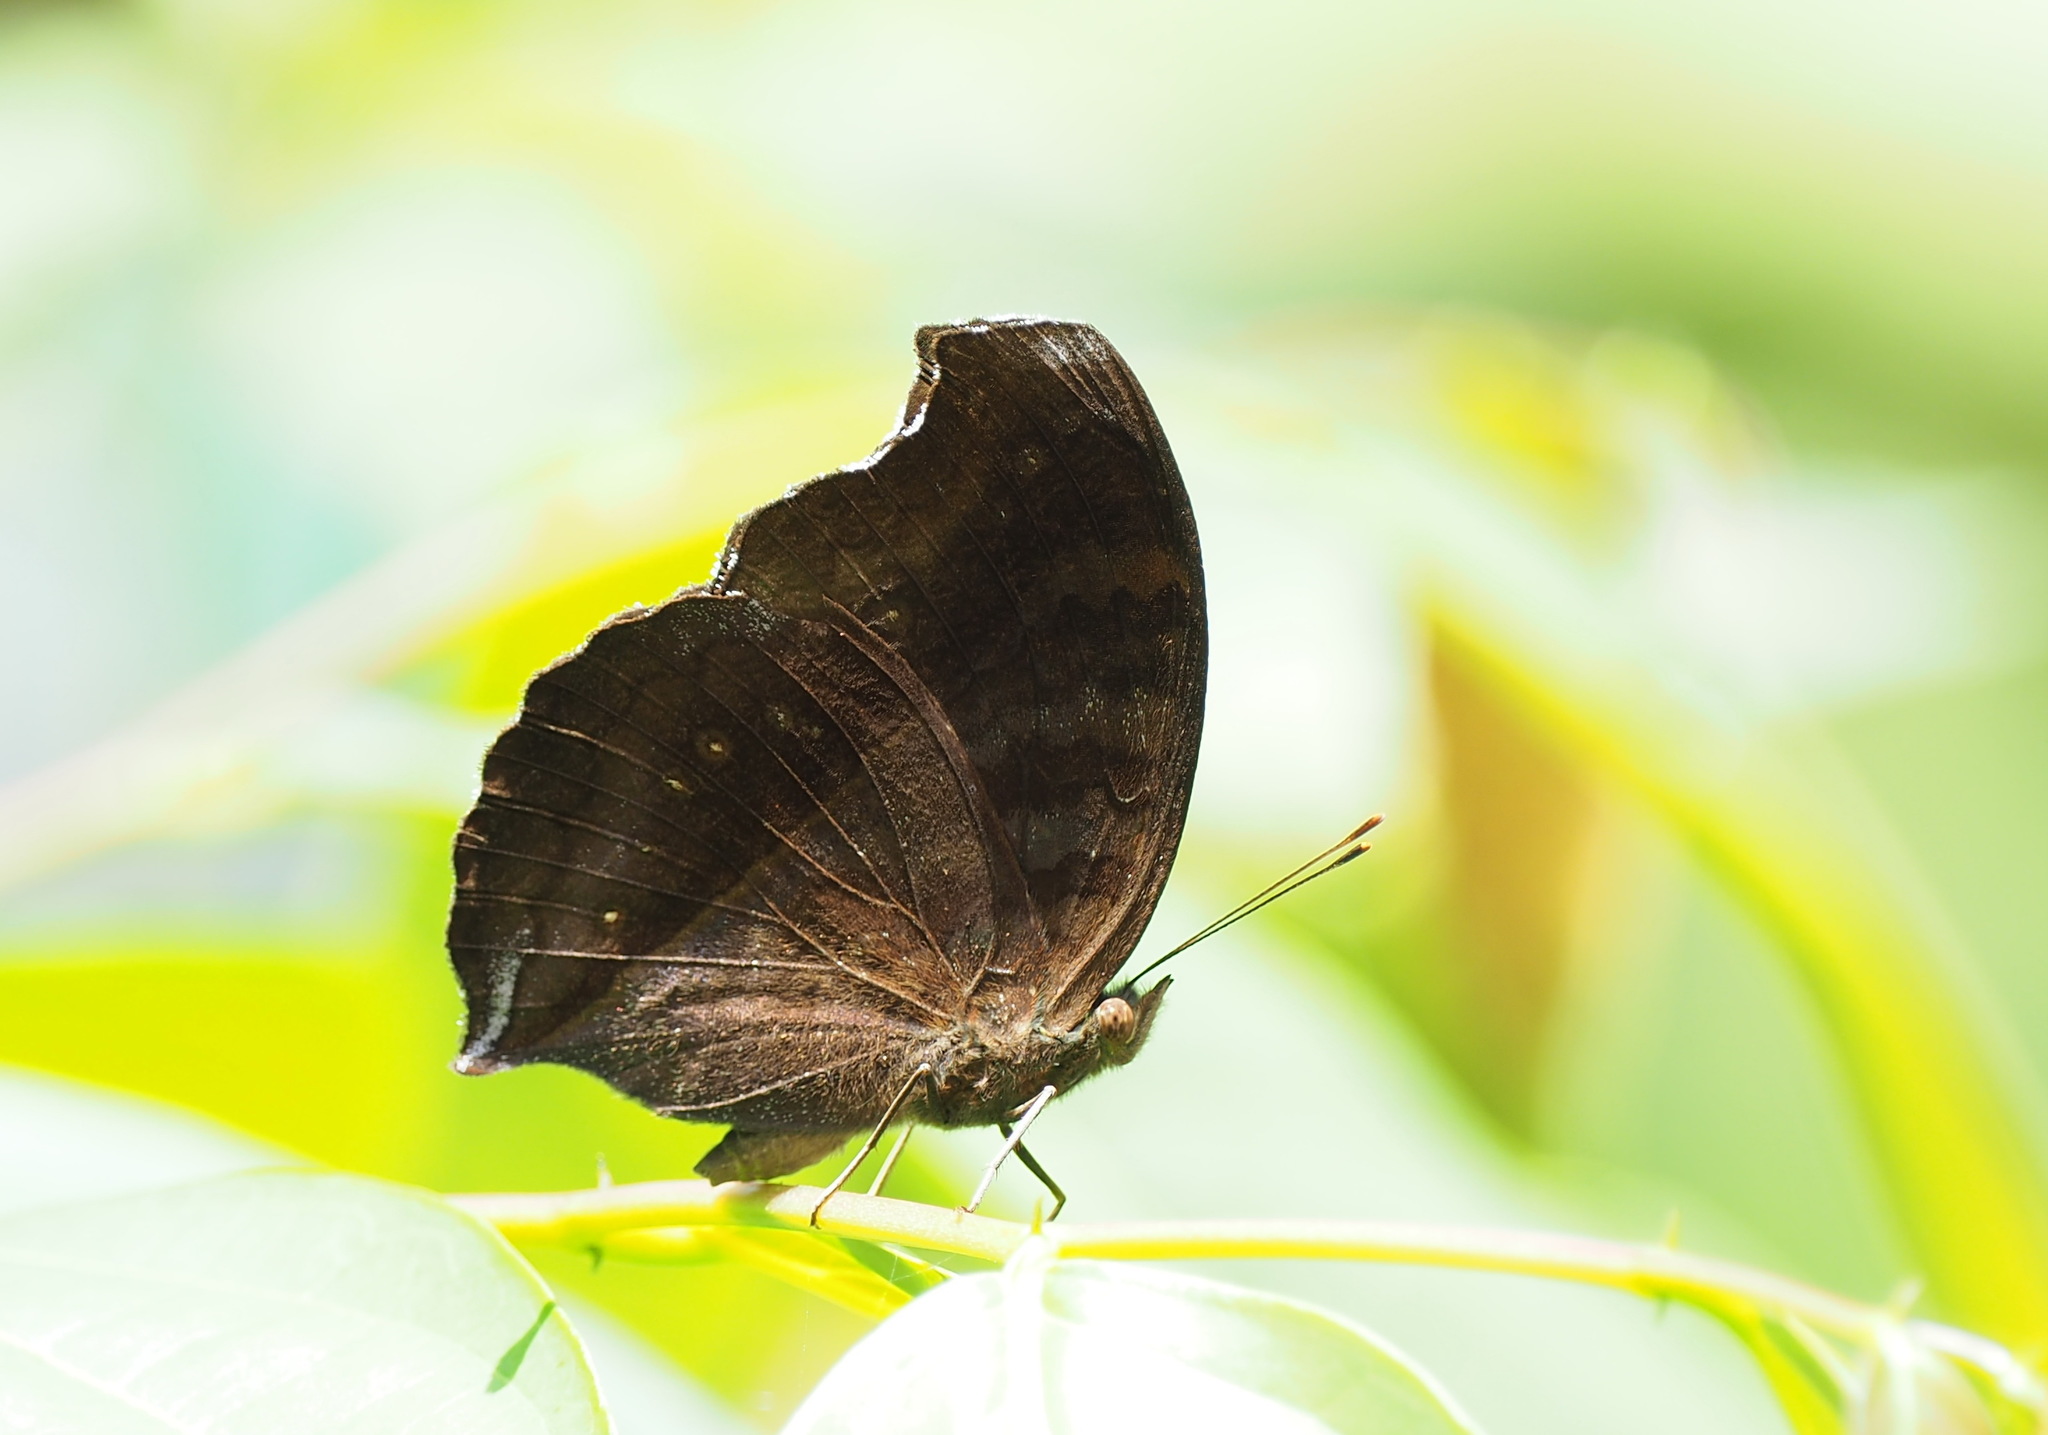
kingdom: Animalia
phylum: Arthropoda
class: Insecta
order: Lepidoptera
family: Nymphalidae
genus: Junonia
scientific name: Junonia iphita
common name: Chocolate pansy
